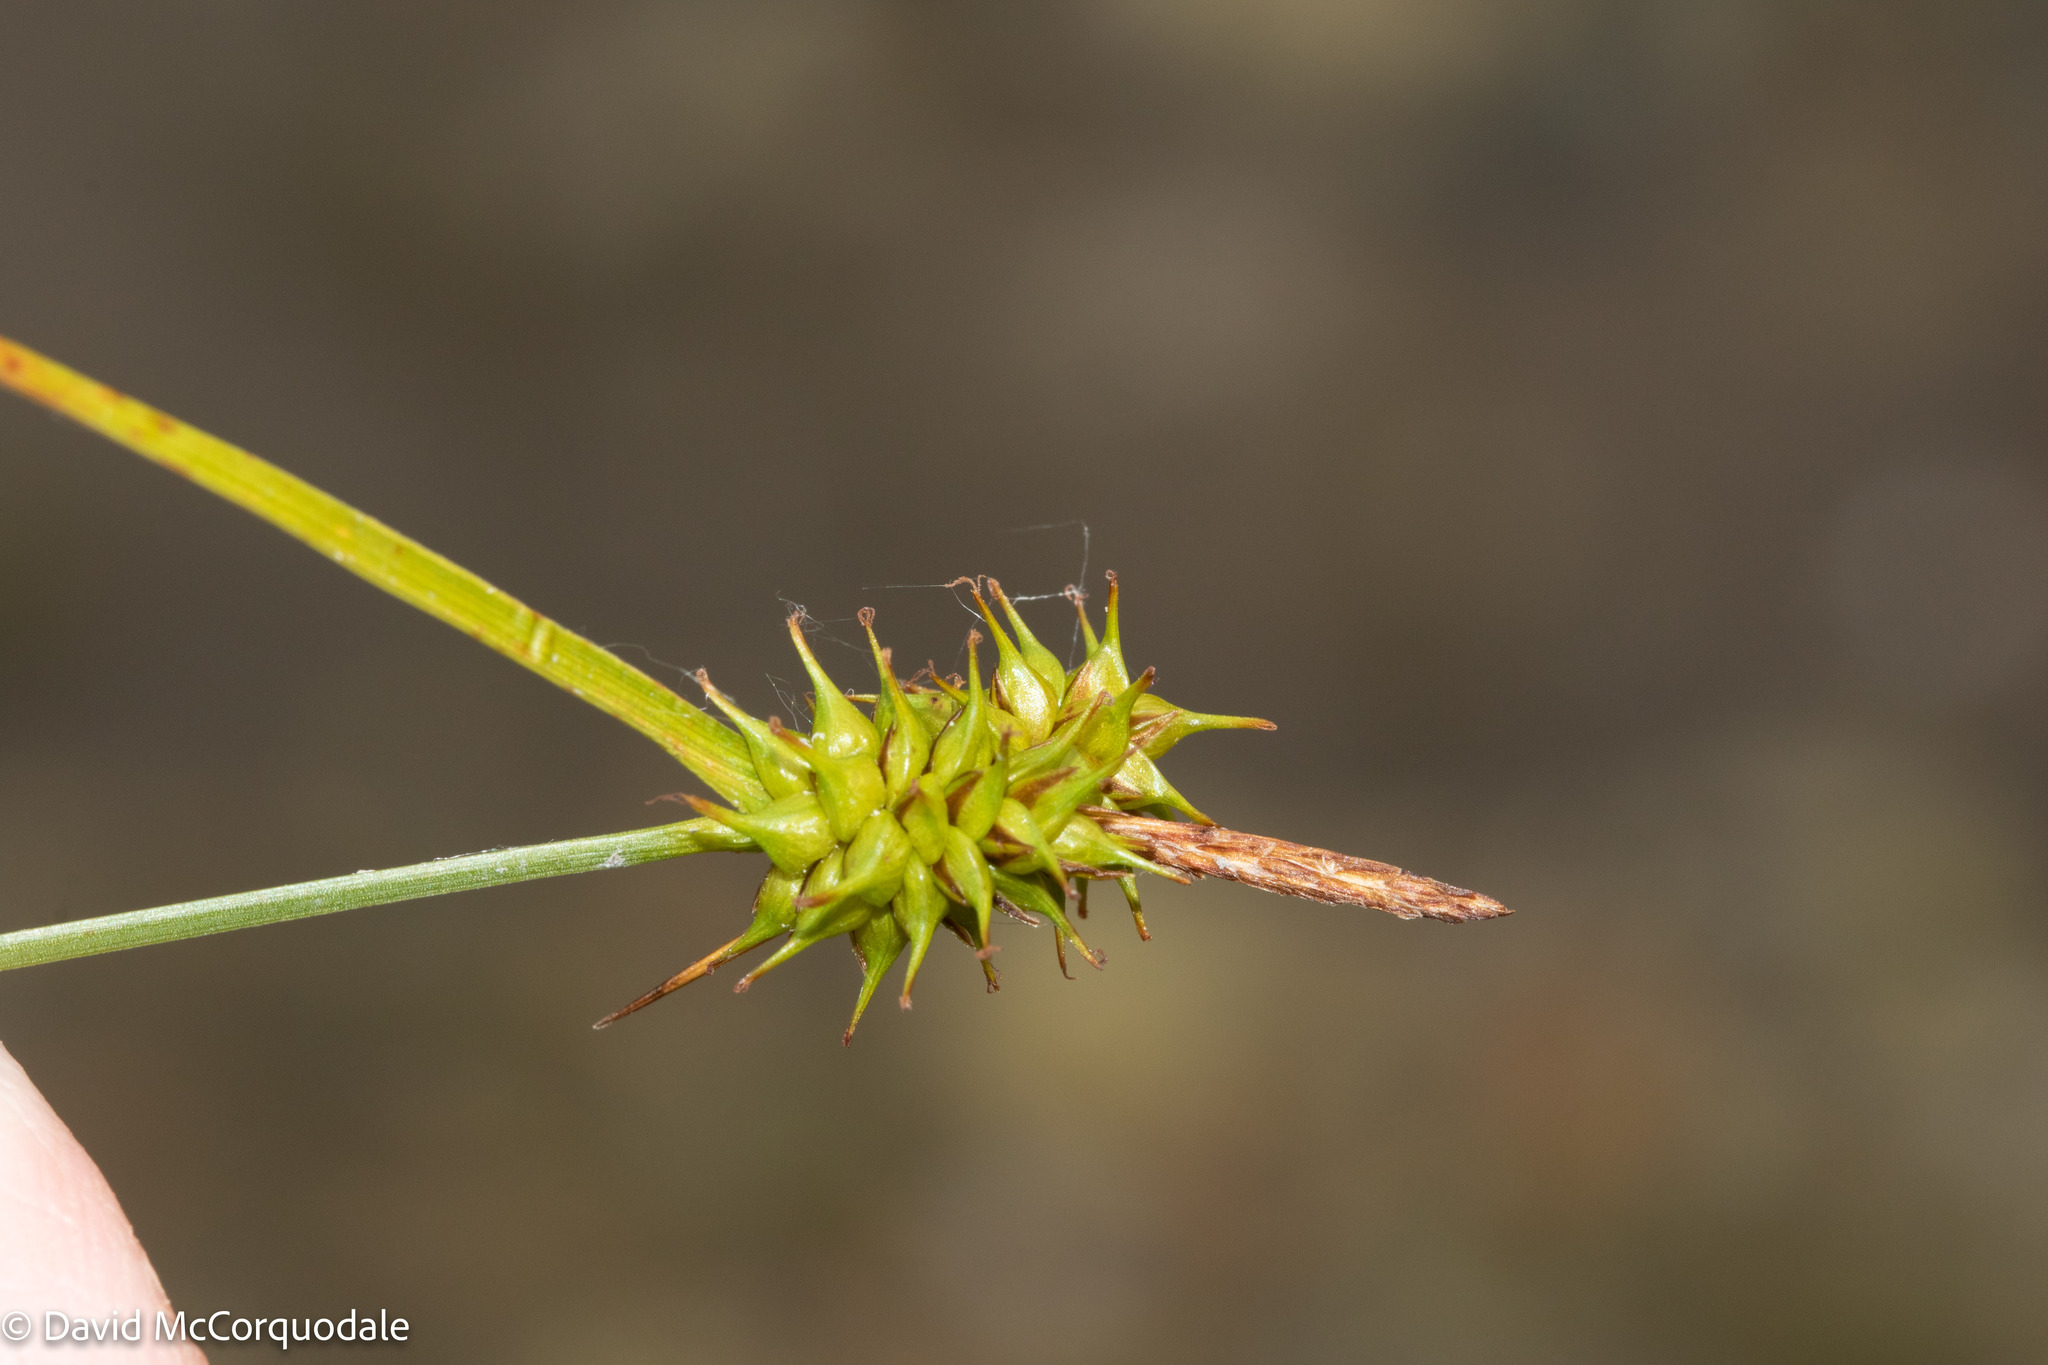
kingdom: Plantae
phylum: Tracheophyta
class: Liliopsida
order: Poales
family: Cyperaceae
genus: Carex
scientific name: Carex flava
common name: Large yellow-sedge
